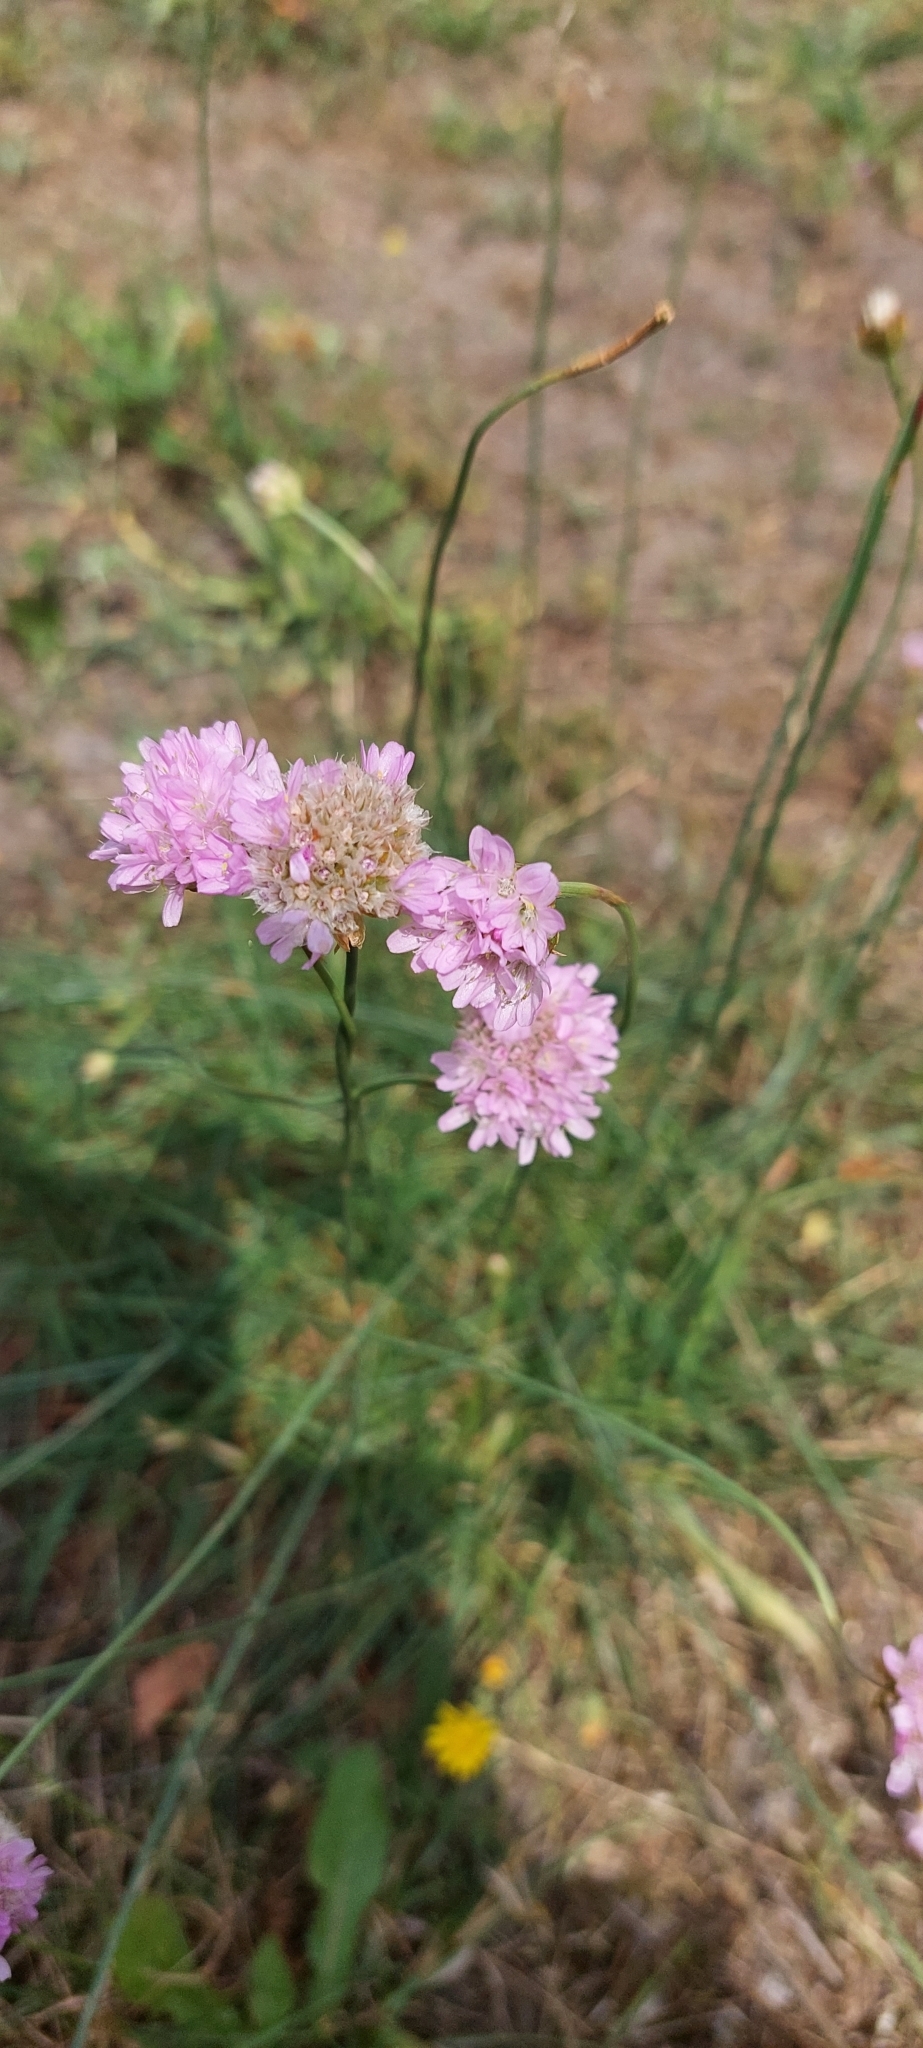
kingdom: Plantae
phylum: Tracheophyta
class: Magnoliopsida
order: Caryophyllales
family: Plumbaginaceae
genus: Armeria
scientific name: Armeria arenaria
